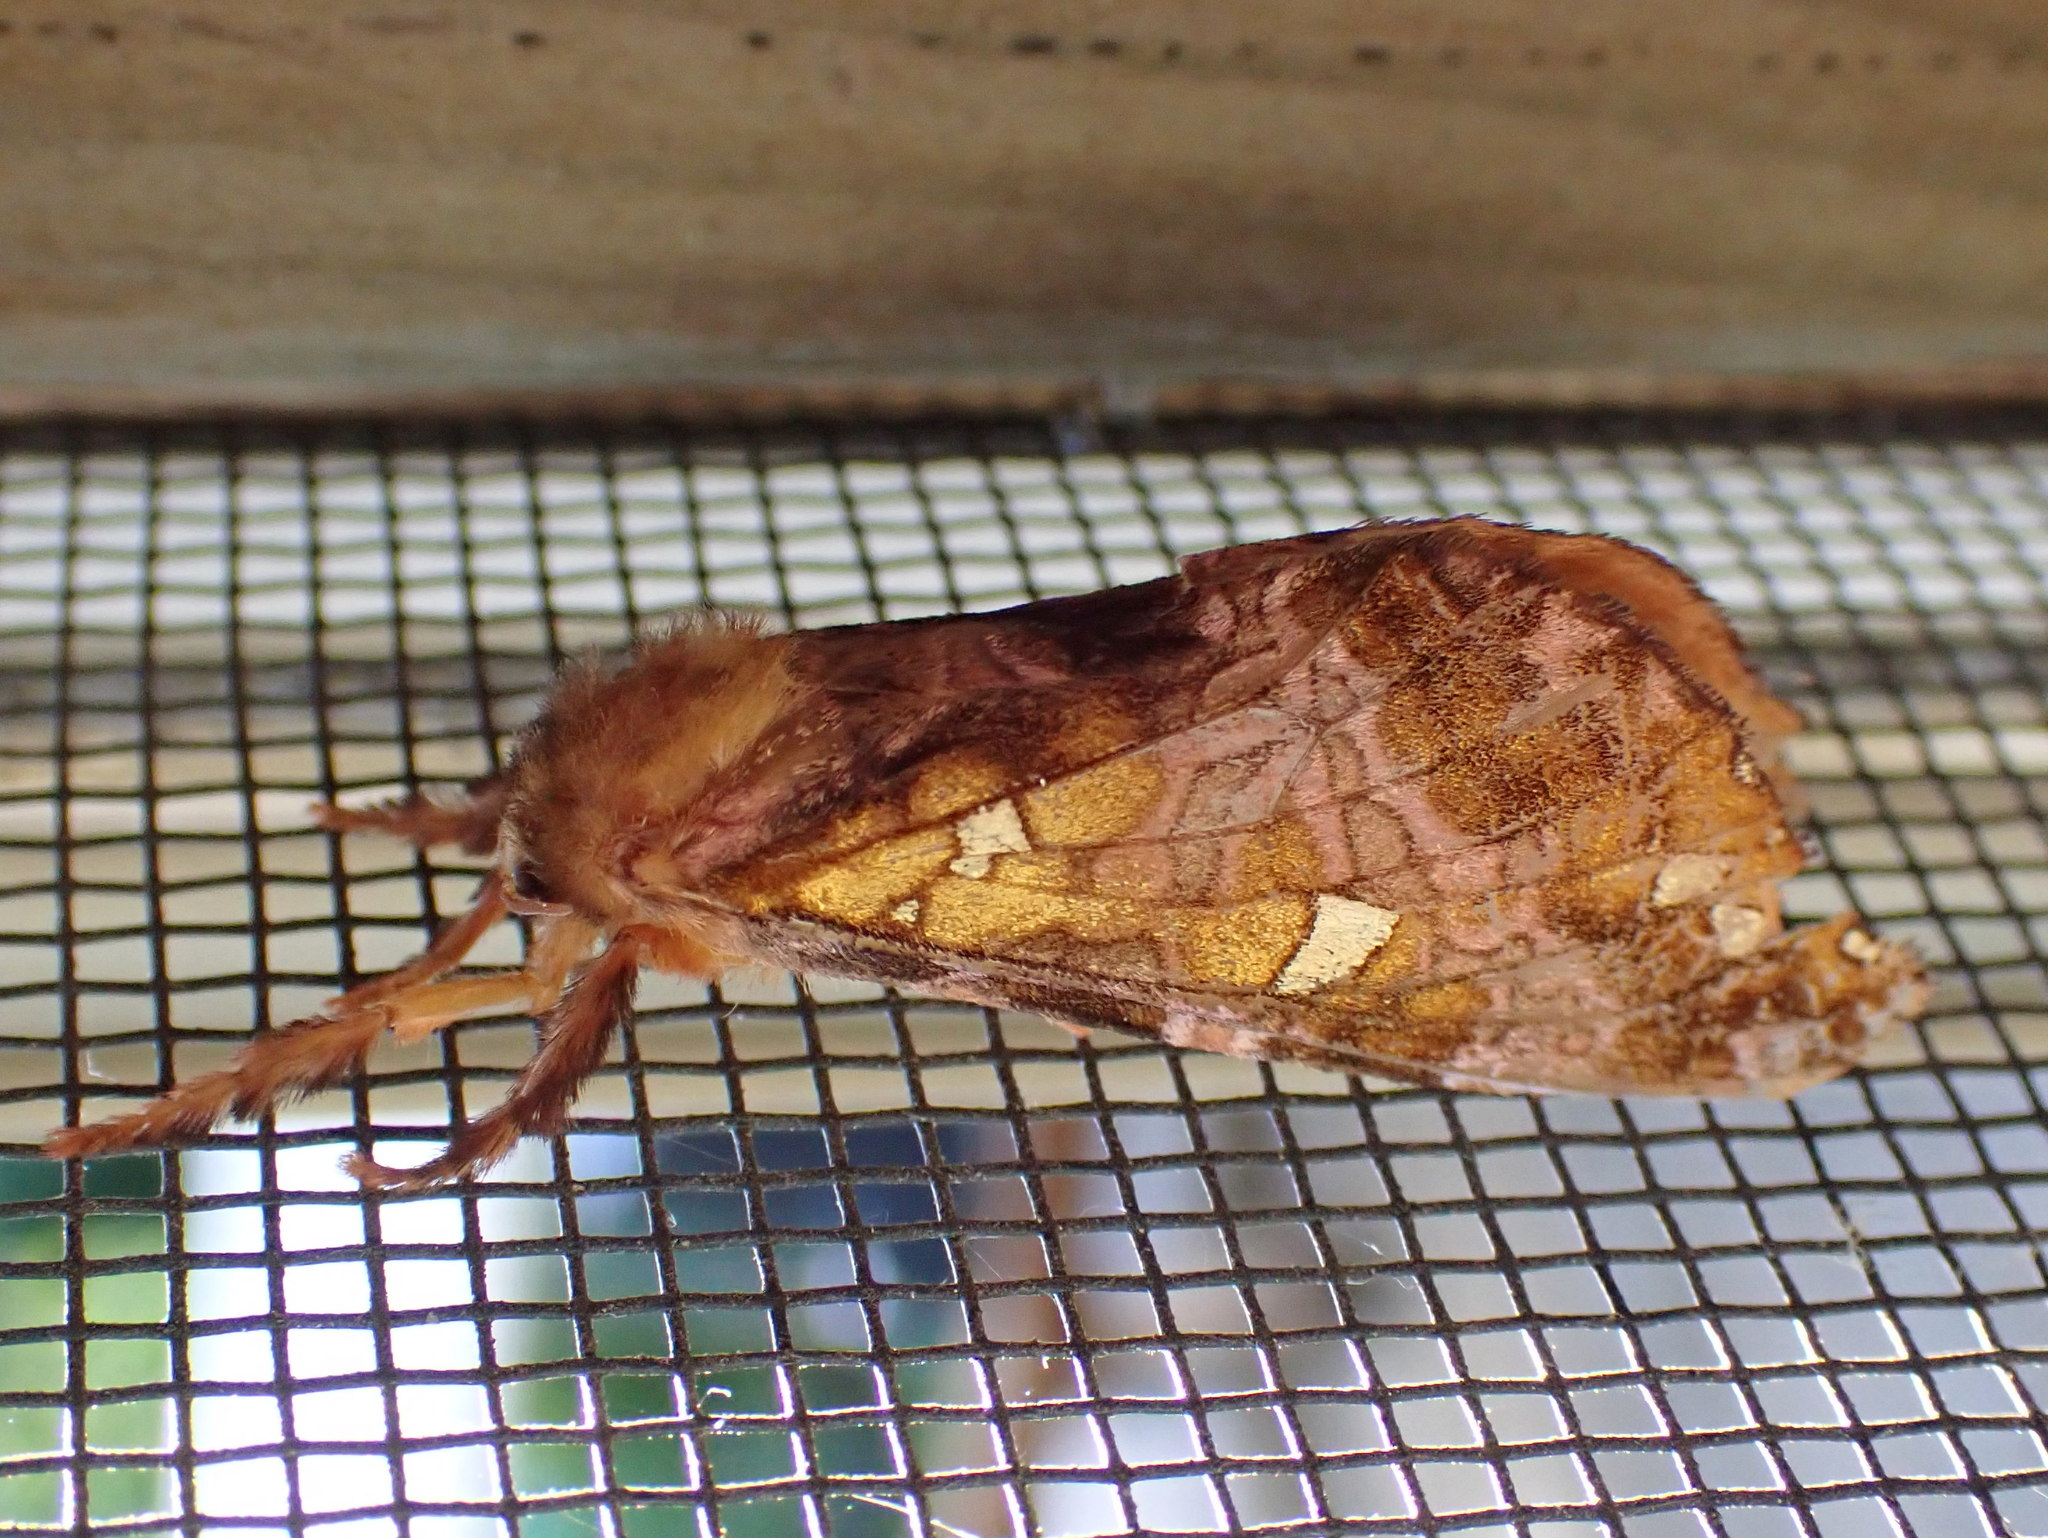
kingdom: Animalia
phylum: Arthropoda
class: Insecta
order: Lepidoptera
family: Hepialidae
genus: Sthenopis
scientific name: Sthenopis pretiosus
